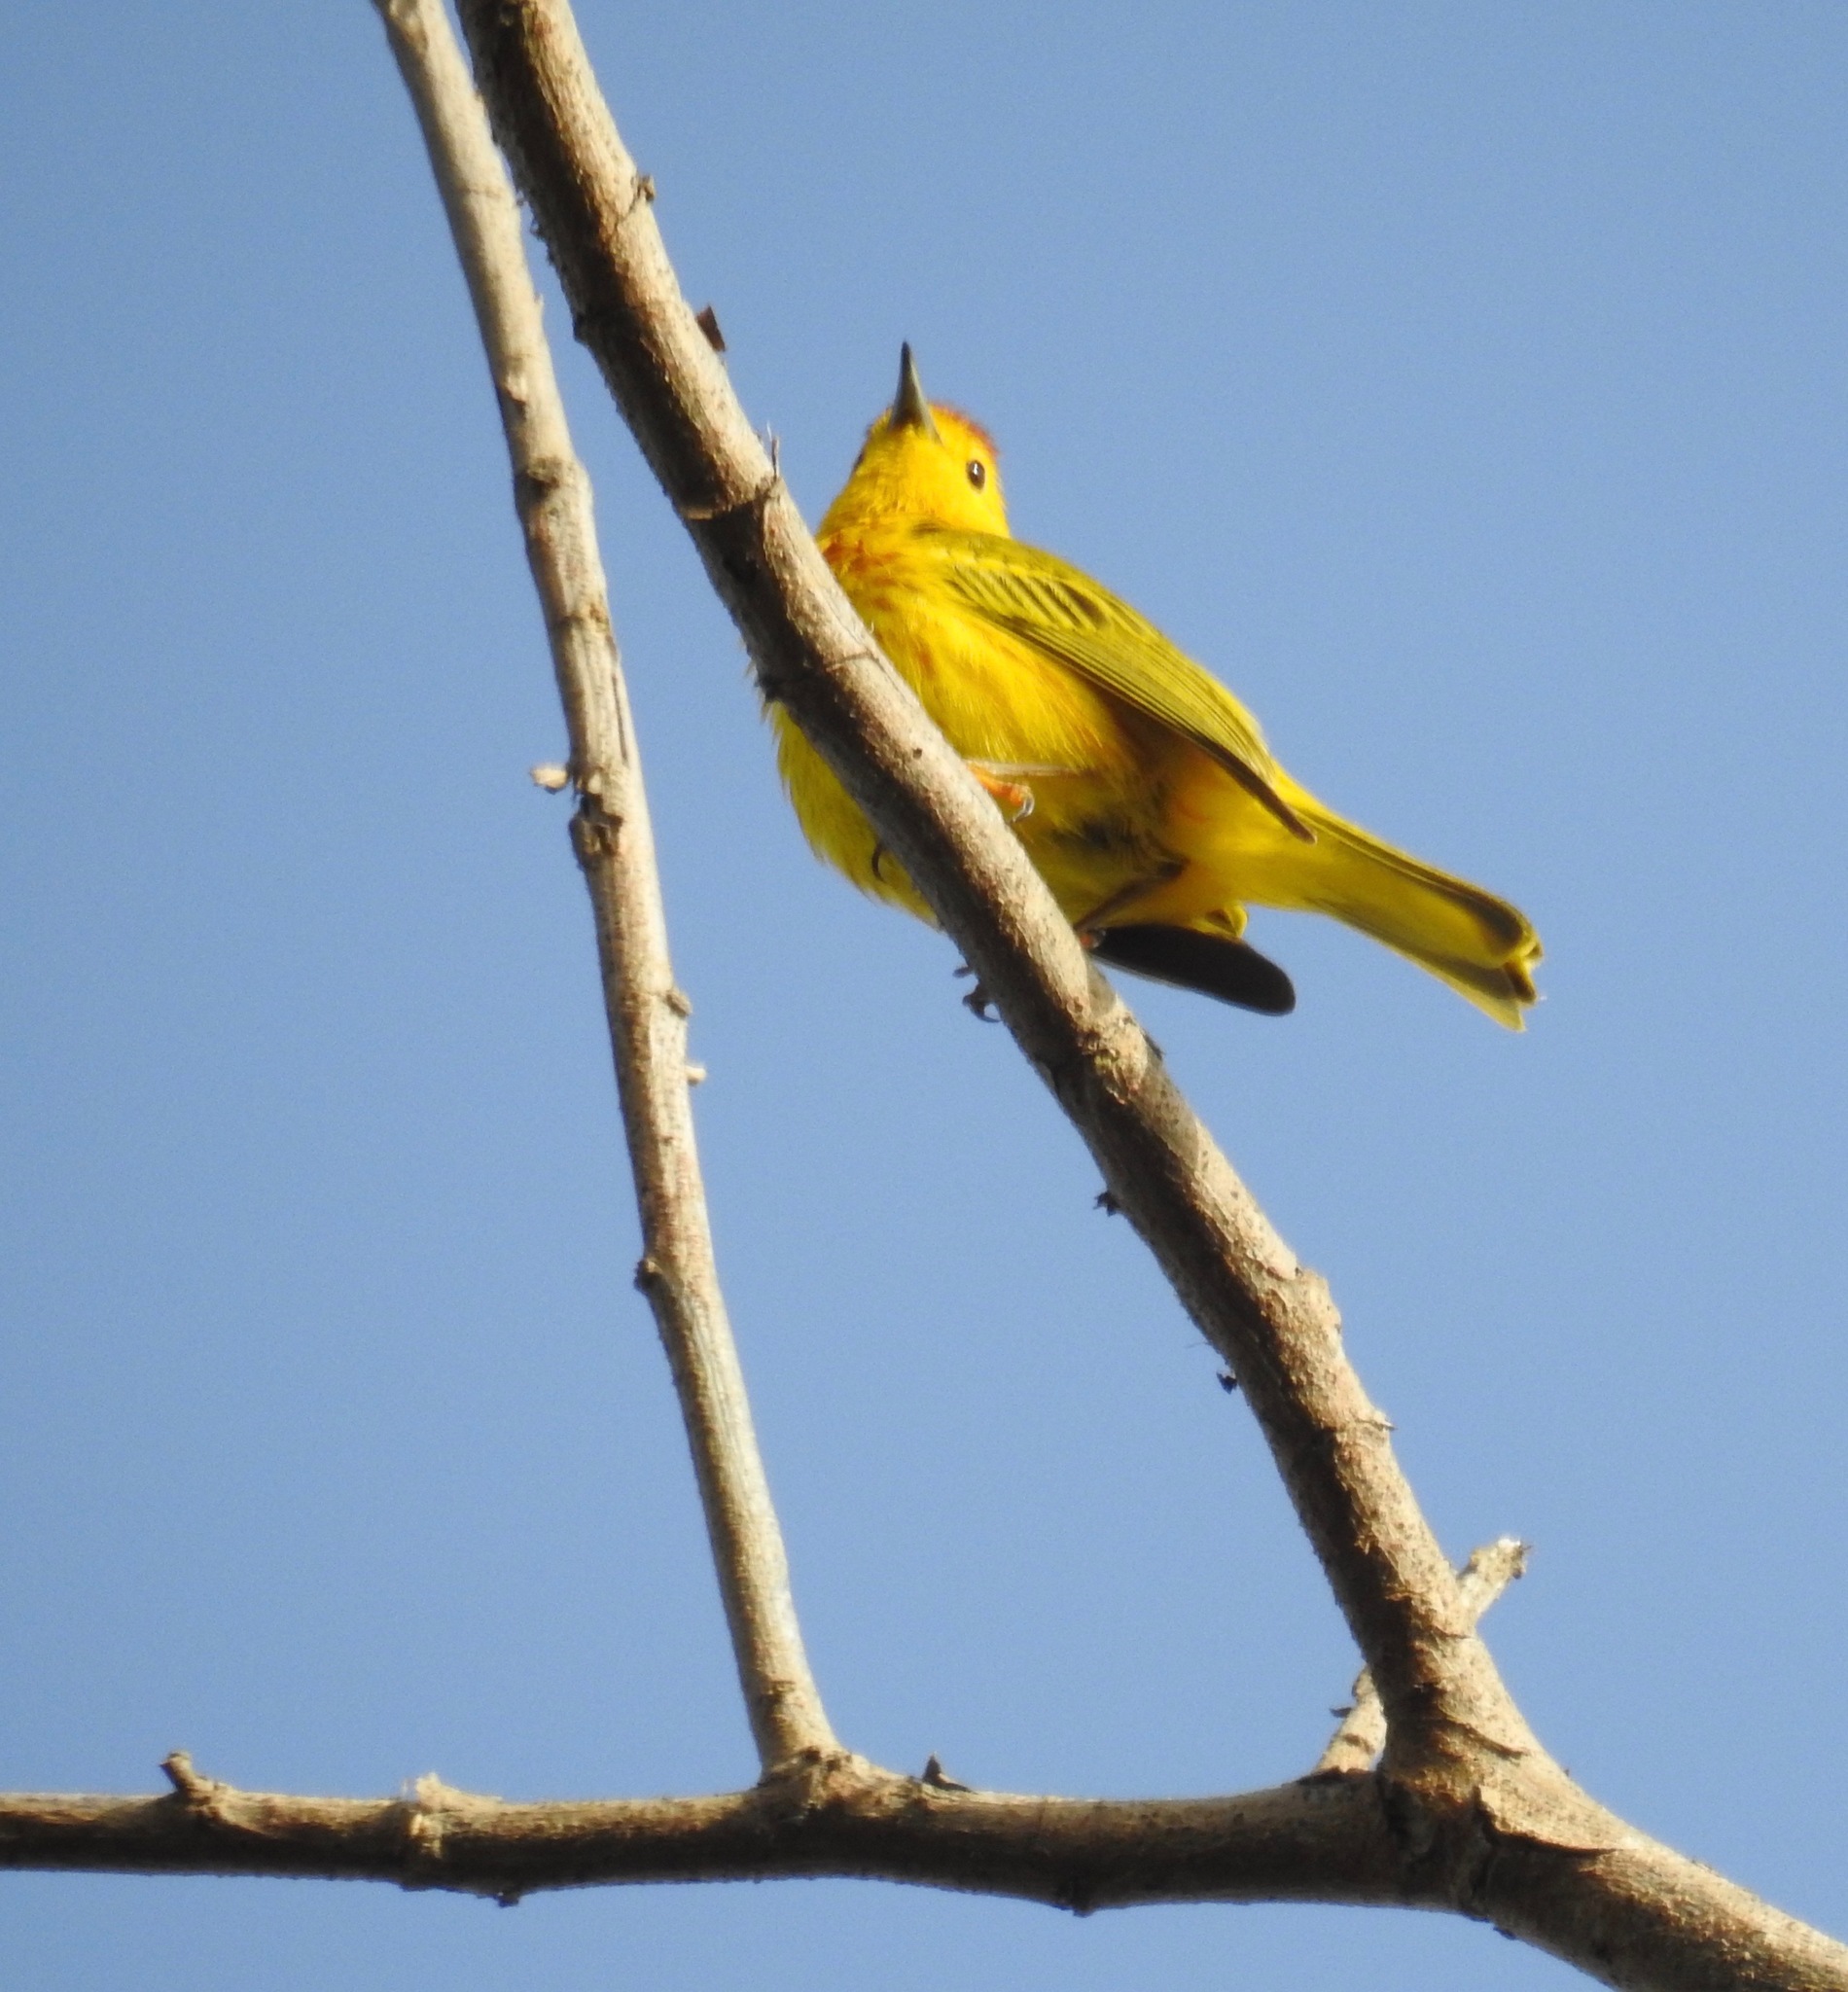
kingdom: Animalia
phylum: Chordata
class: Aves
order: Passeriformes
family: Parulidae
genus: Setophaga
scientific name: Setophaga petechia
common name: Yellow warbler
